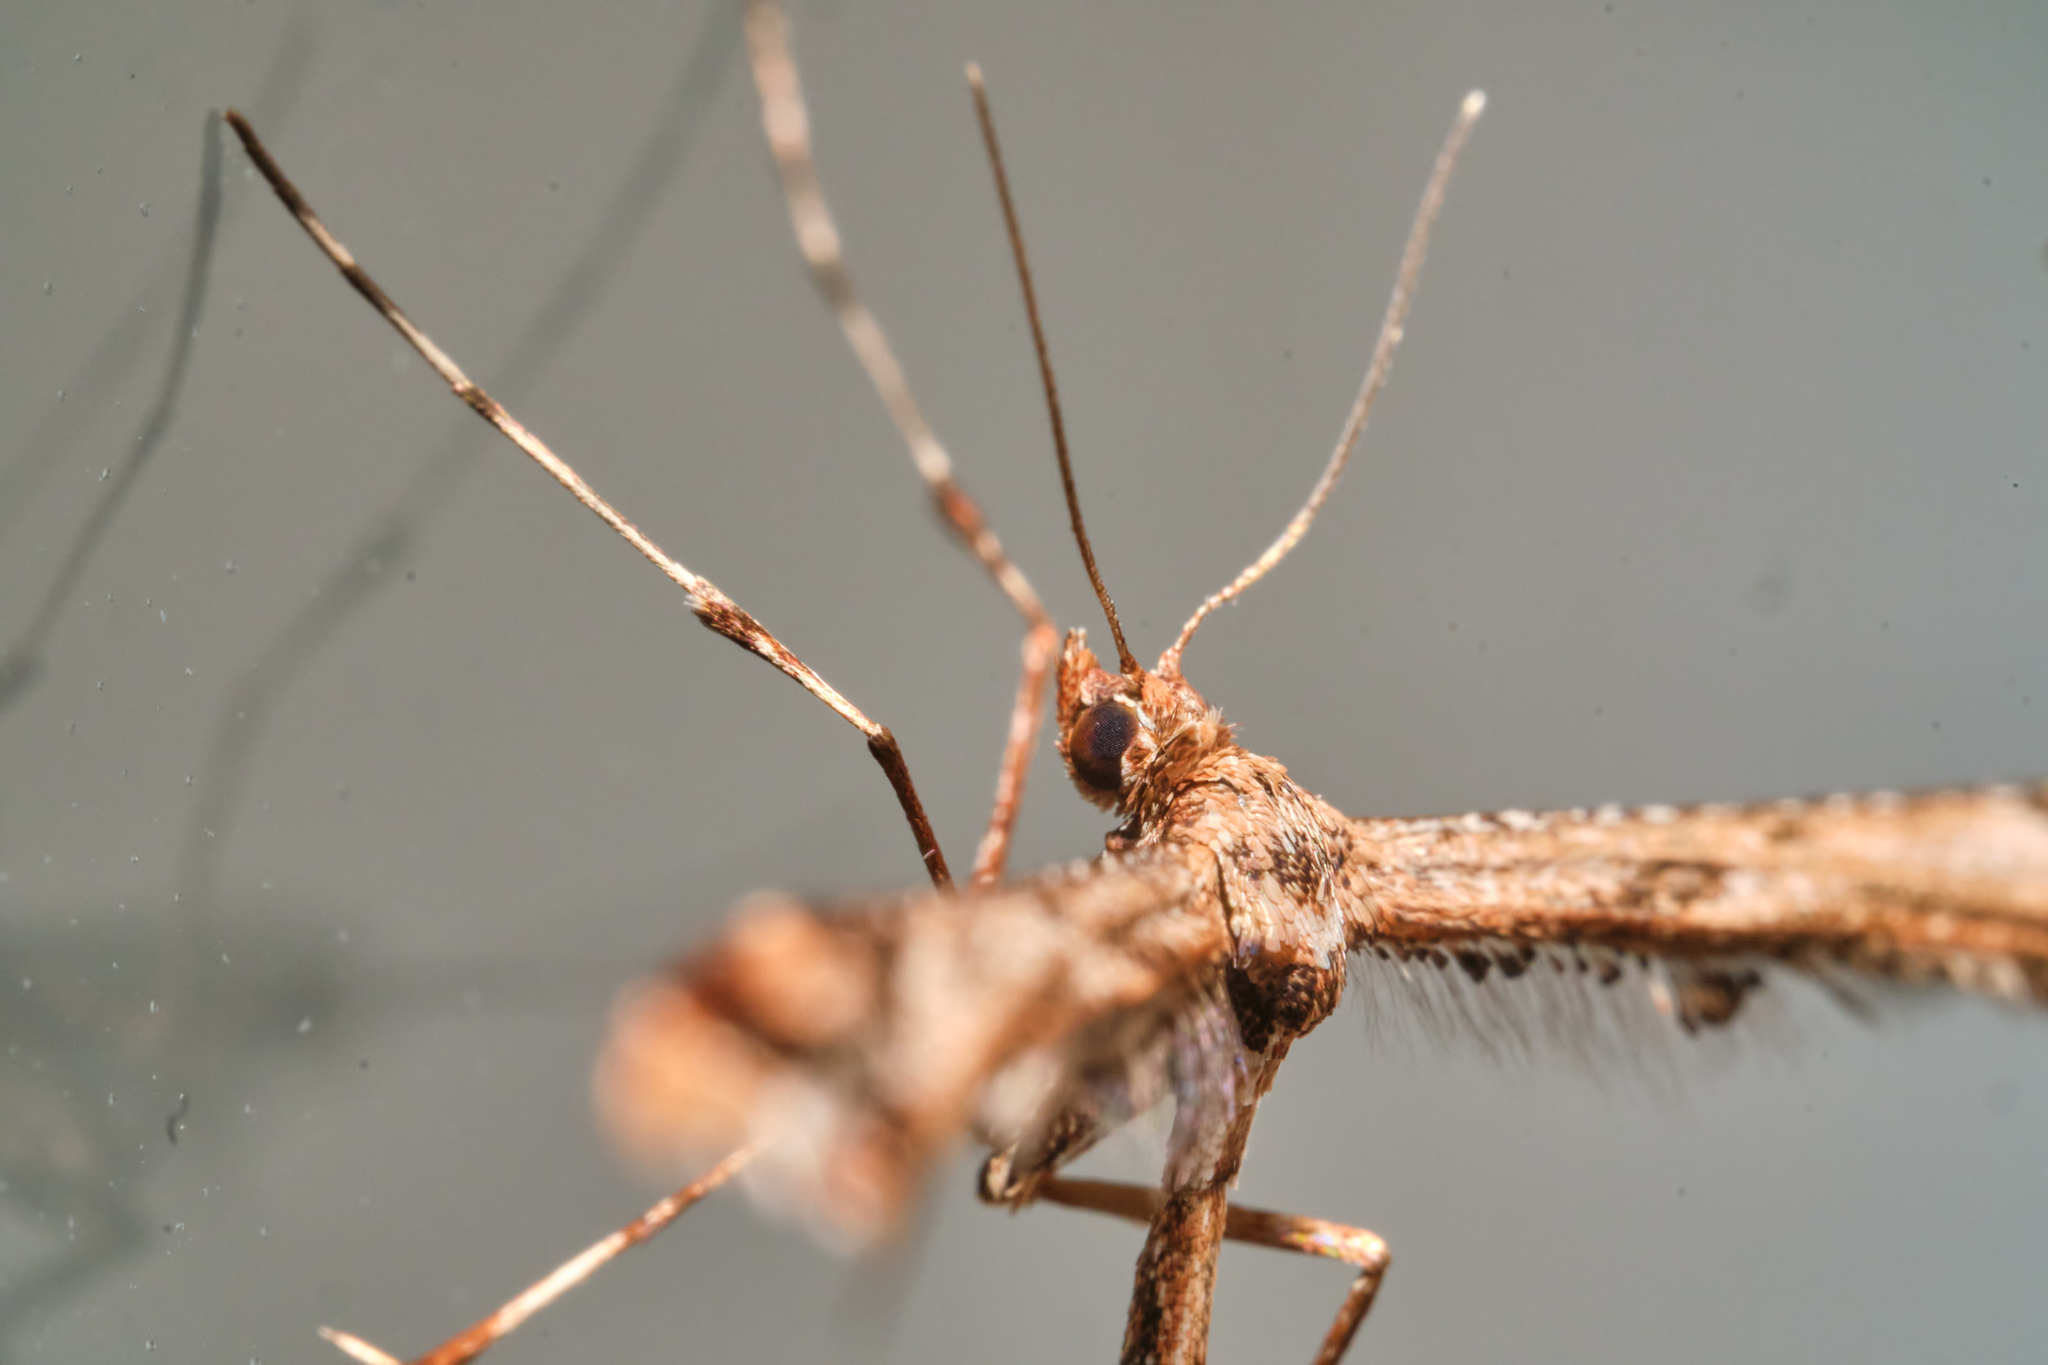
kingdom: Animalia
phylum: Arthropoda
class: Insecta
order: Lepidoptera
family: Pterophoridae
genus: Amblyptilia
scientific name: Amblyptilia acanthadactyla
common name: Beautiful plume
